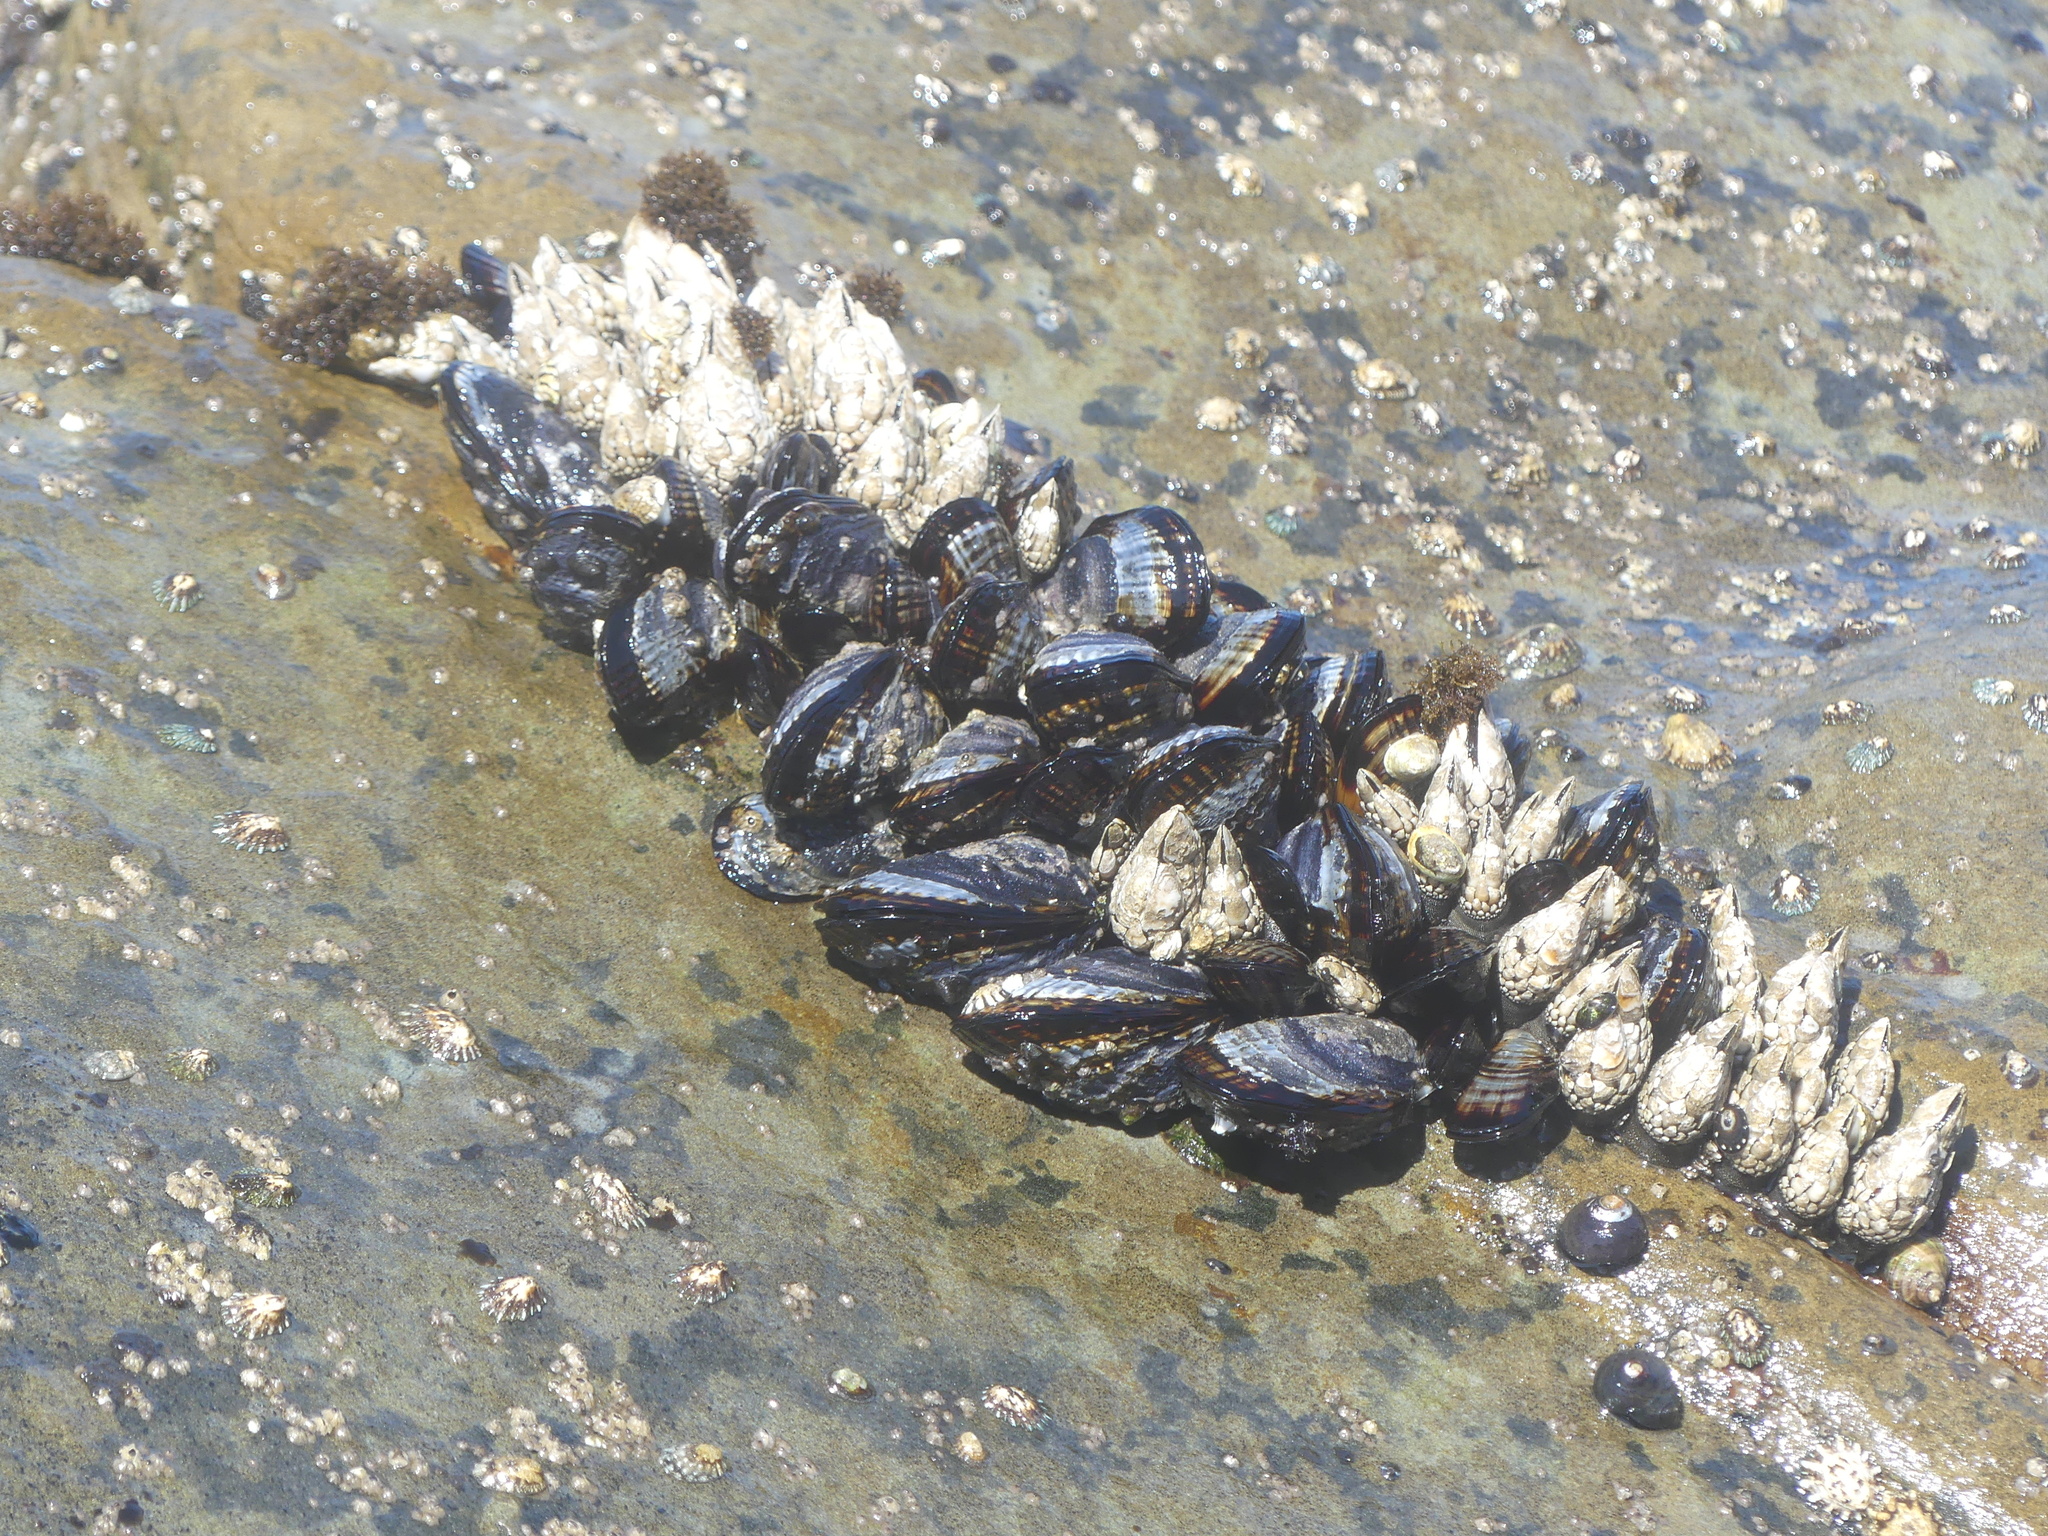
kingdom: Animalia
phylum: Mollusca
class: Bivalvia
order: Mytilida
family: Mytilidae
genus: Mytilus
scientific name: Mytilus californianus
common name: California mussel
